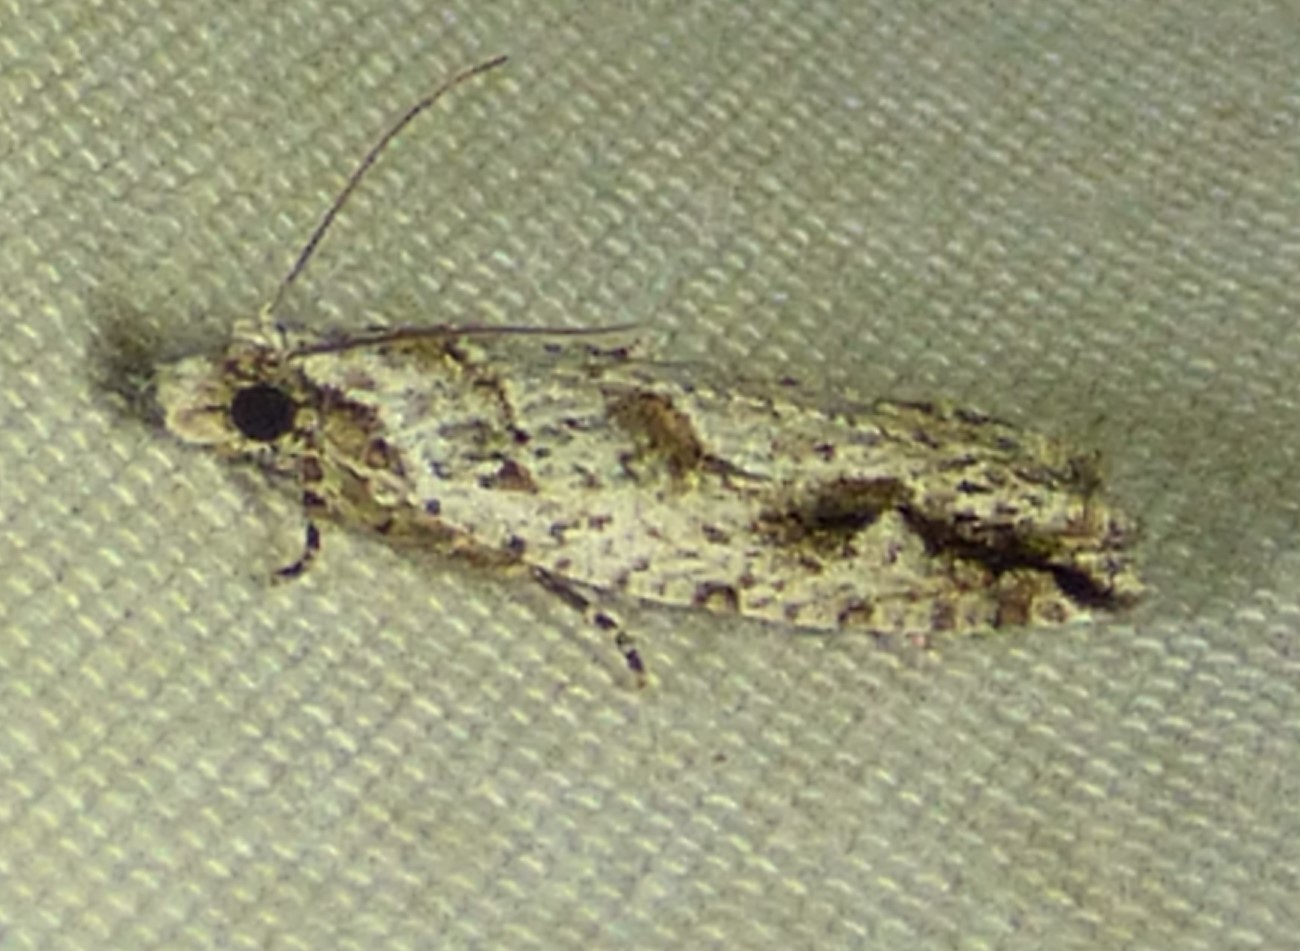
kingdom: Animalia
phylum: Arthropoda
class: Insecta
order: Lepidoptera
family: Tortricidae
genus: Gretchena
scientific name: Gretchena bolliana
